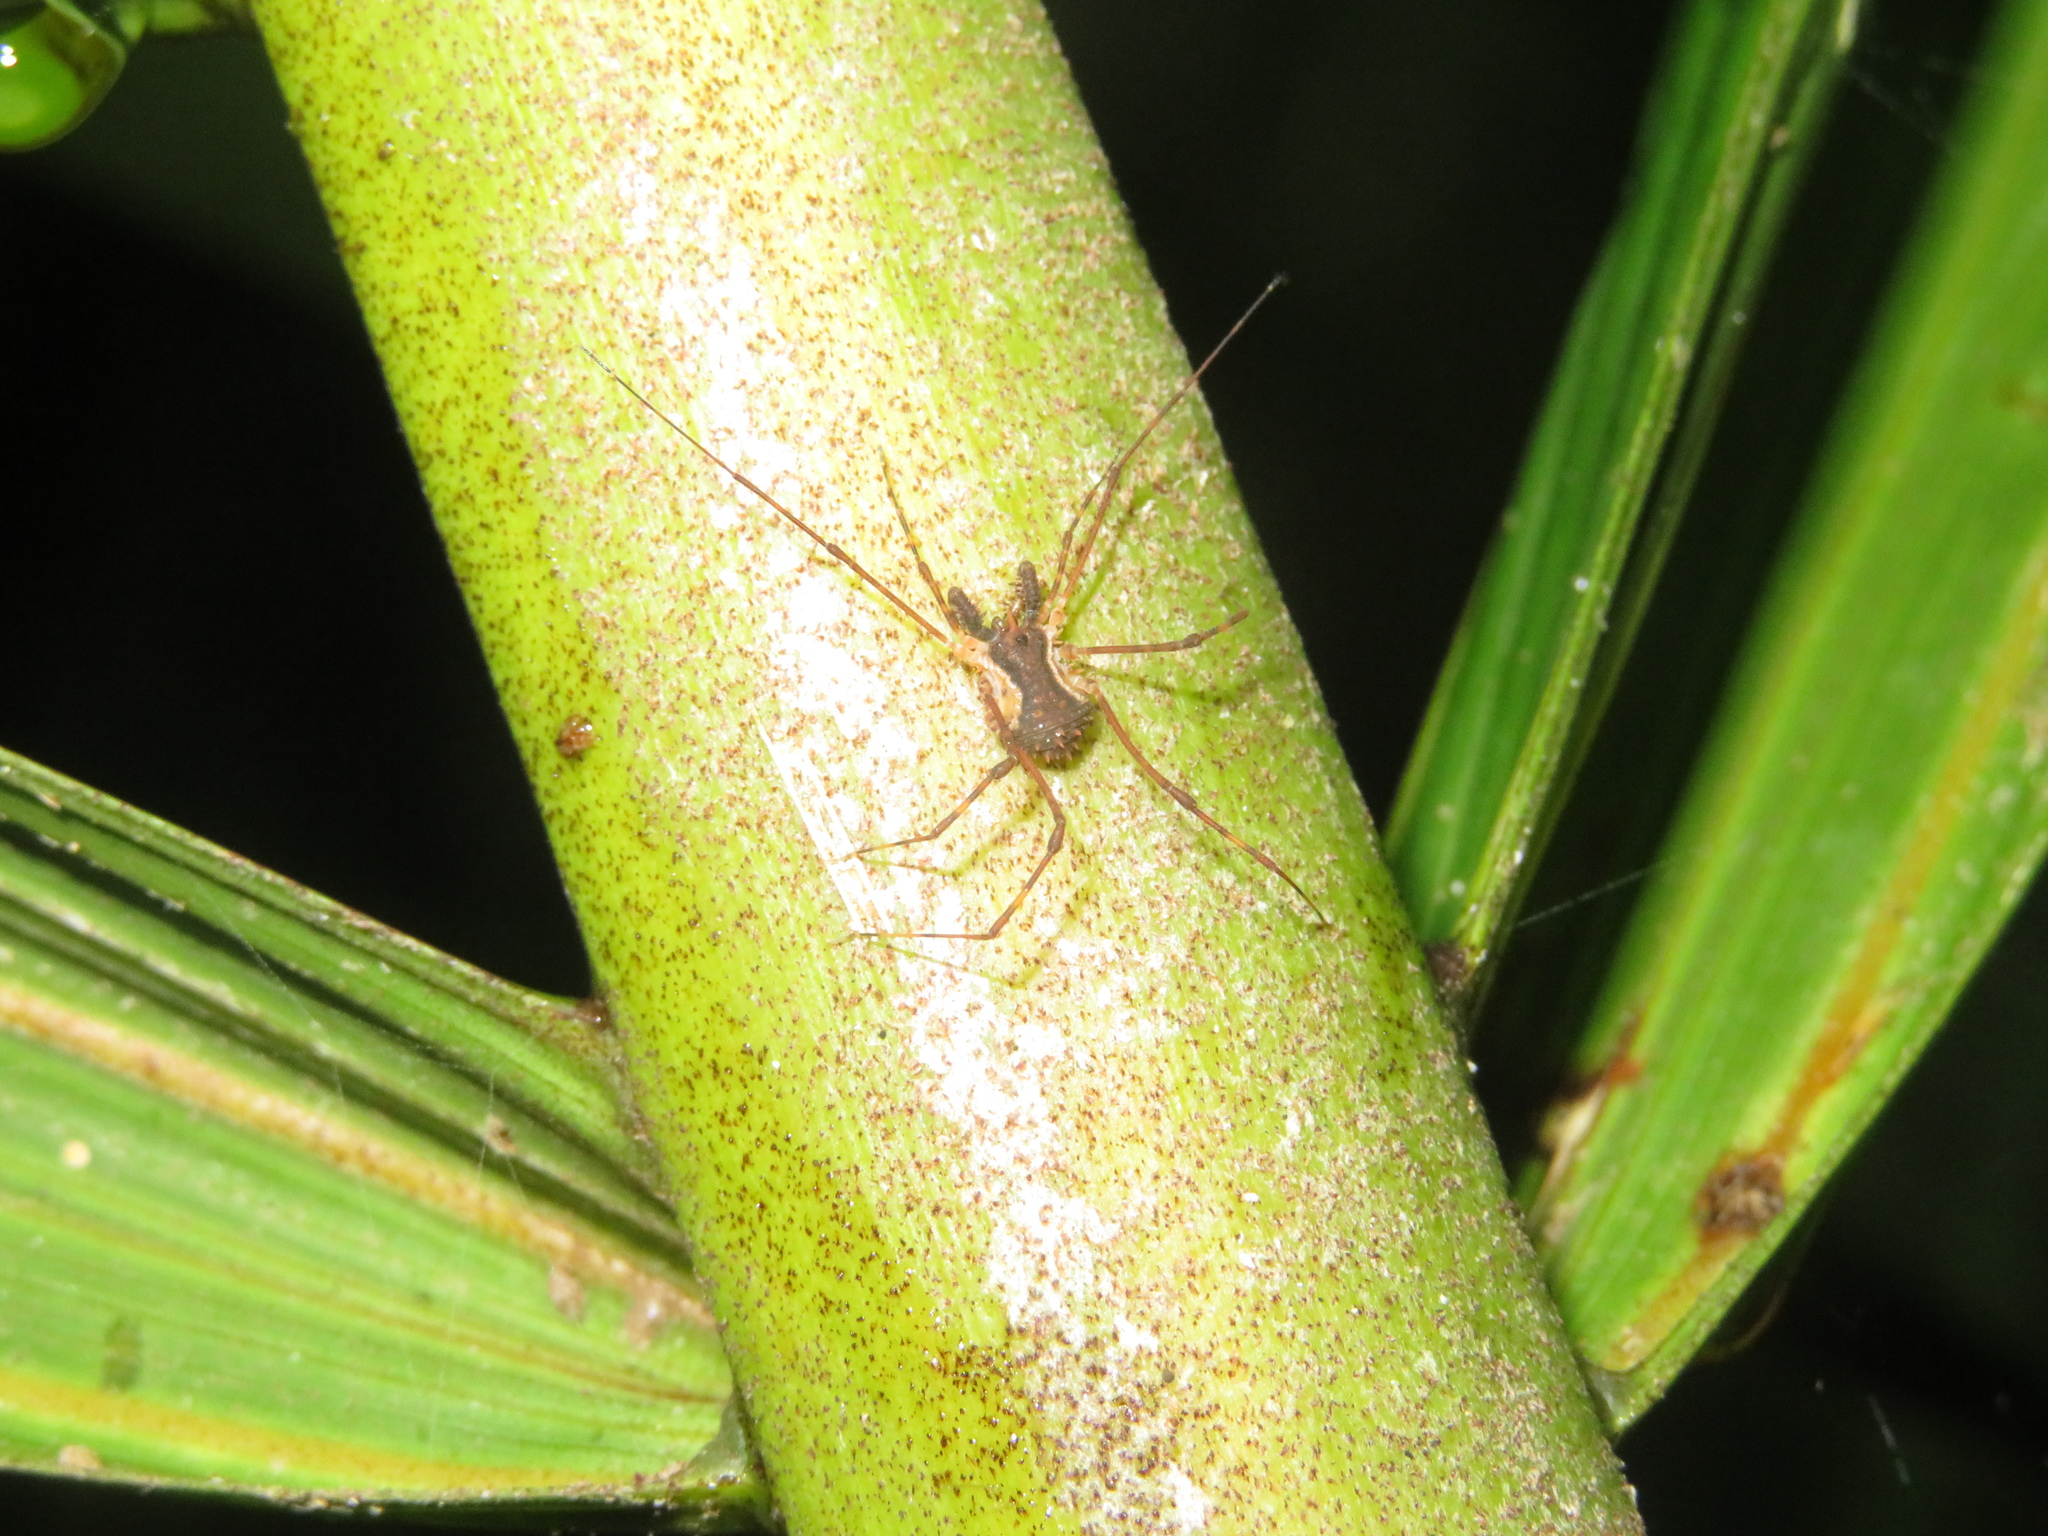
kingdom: Animalia
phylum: Arthropoda
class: Arachnida
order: Opiliones
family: Triaenonychidae
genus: Algidia
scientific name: Algidia chiltoni
